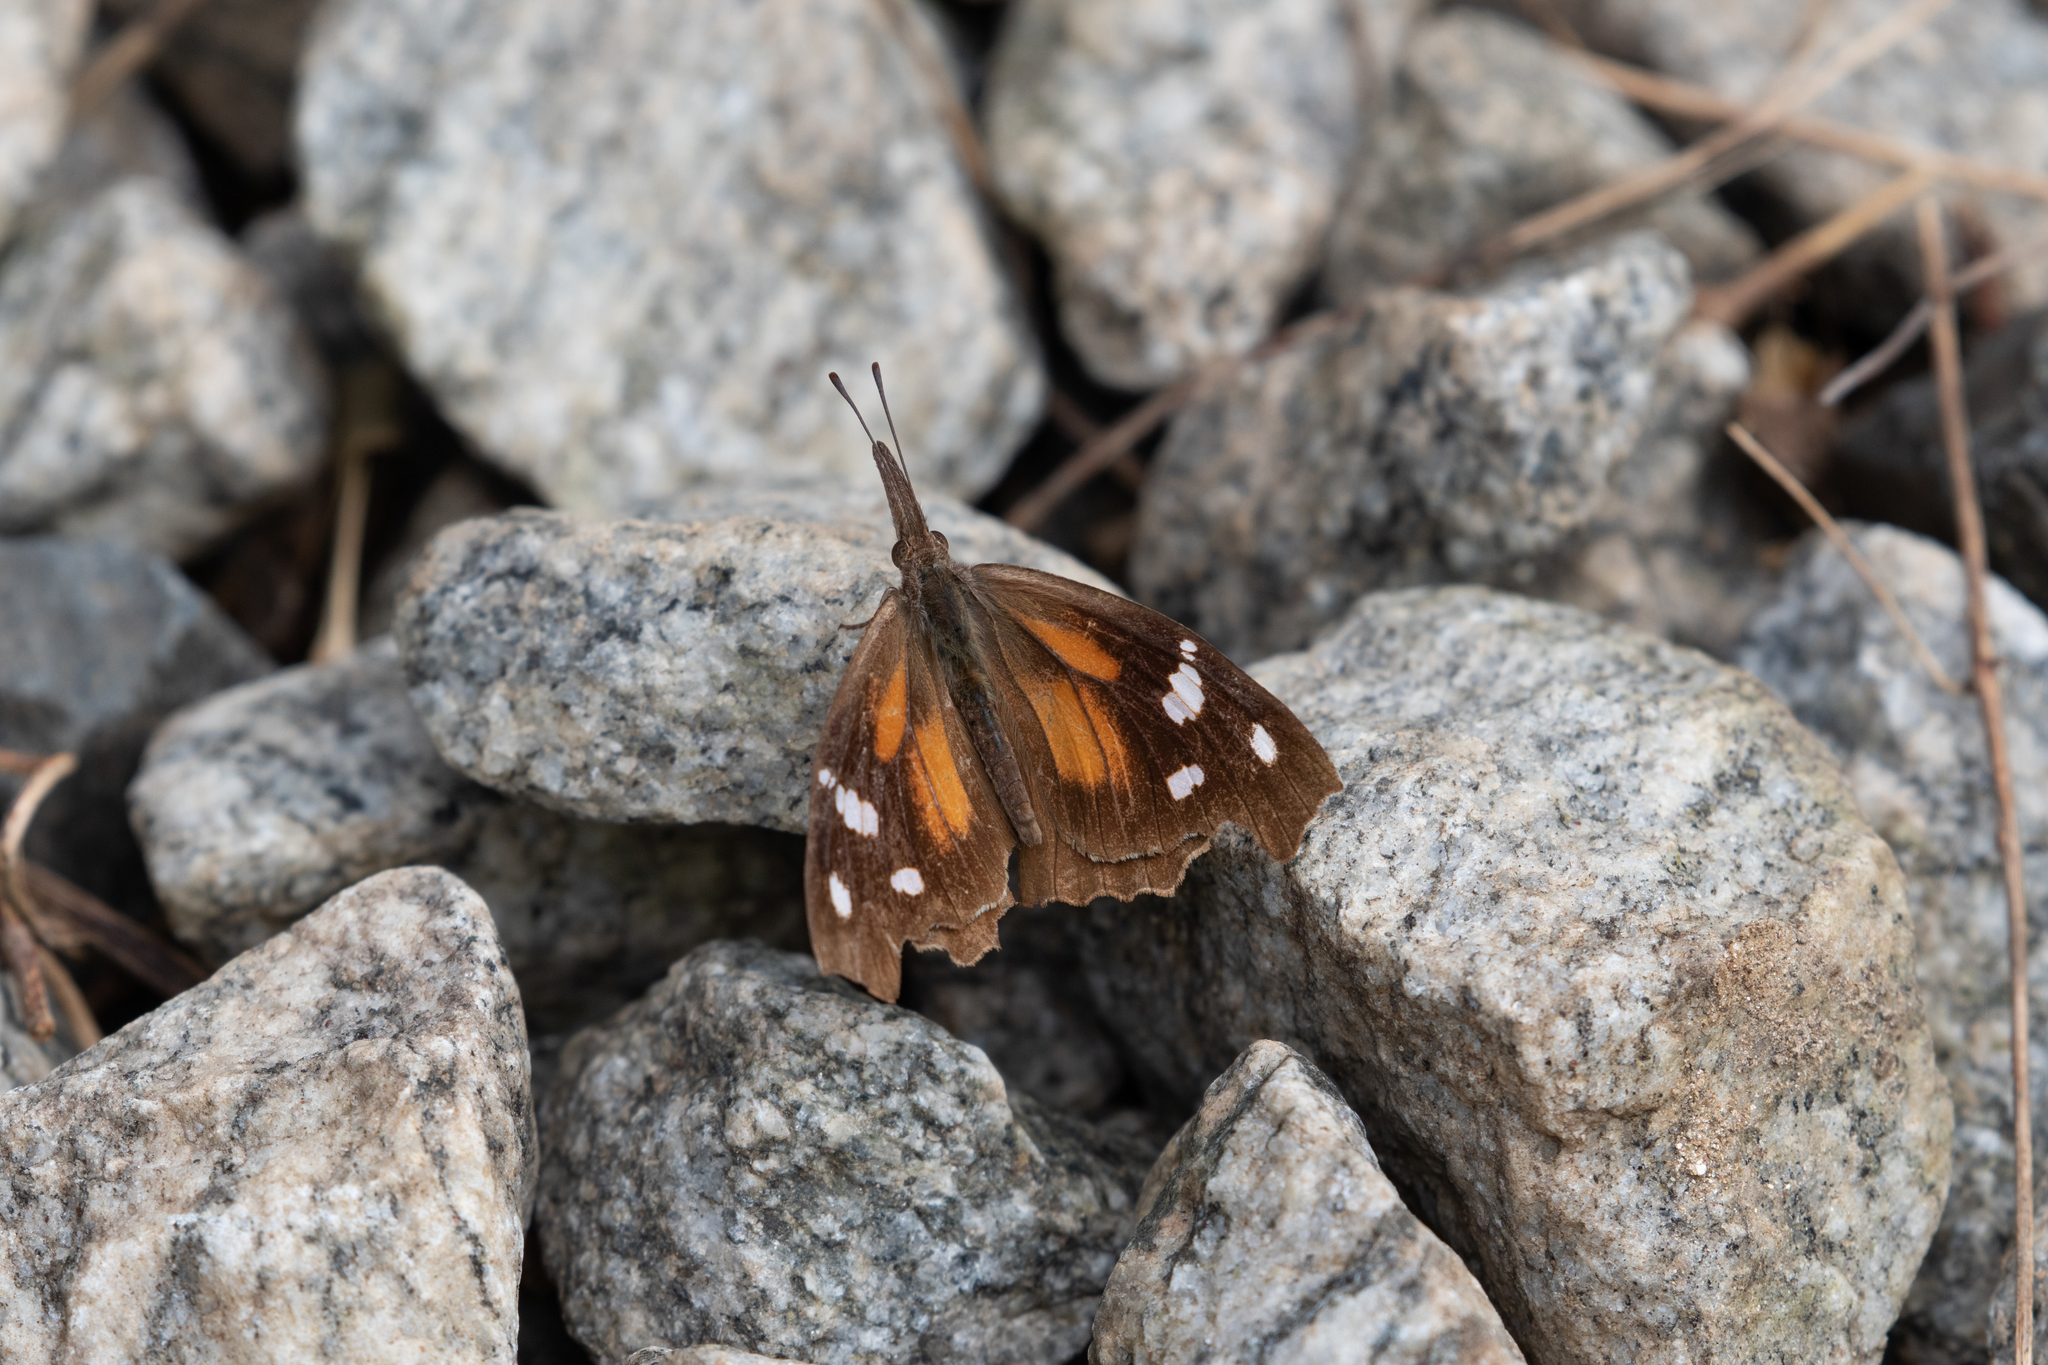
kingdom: Animalia
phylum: Arthropoda
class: Insecta
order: Lepidoptera
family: Nymphalidae
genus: Libytheana
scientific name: Libytheana carinenta
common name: American snout
